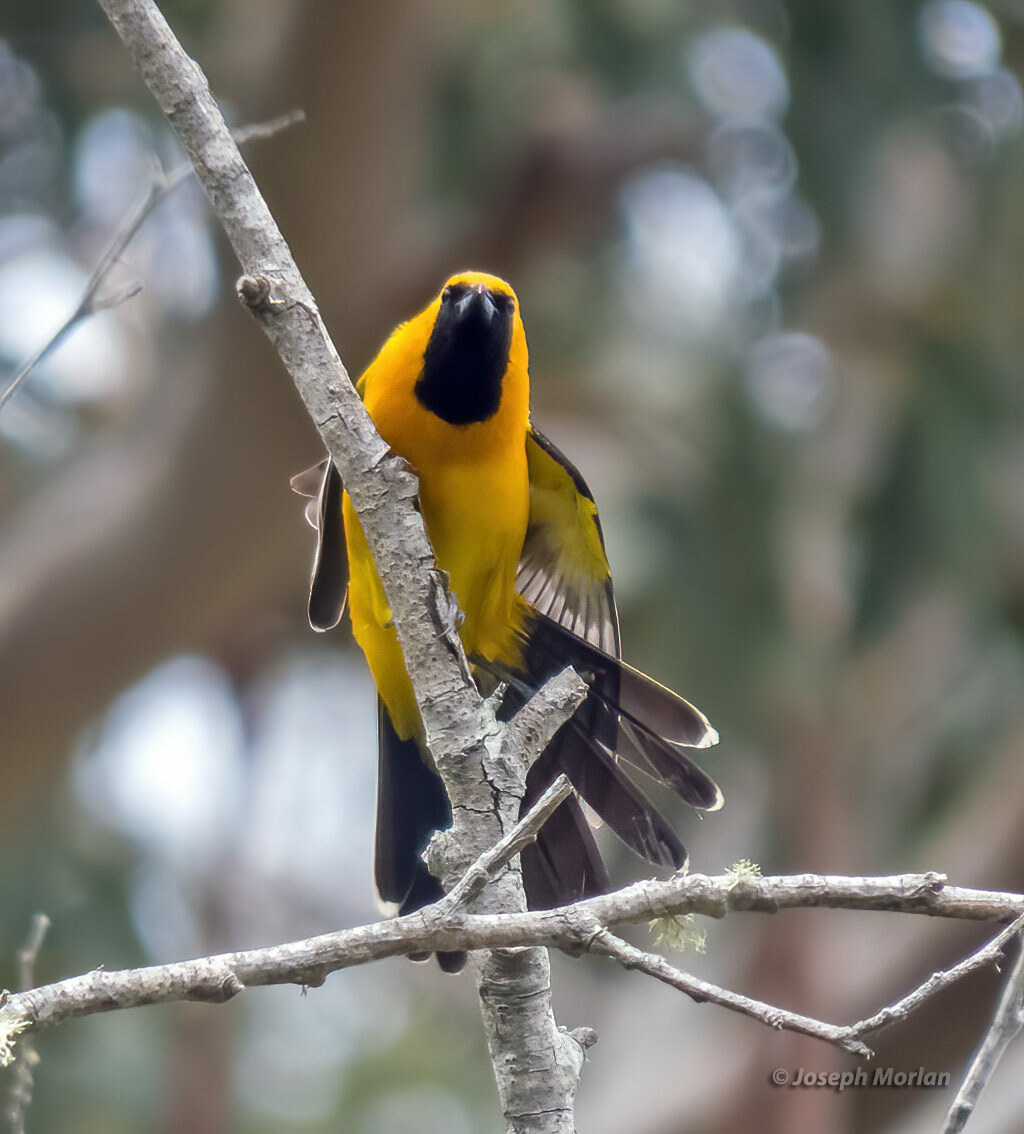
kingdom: Animalia
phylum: Chordata
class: Aves
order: Passeriformes
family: Icteridae
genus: Icterus
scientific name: Icterus cucullatus
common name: Hooded oriole
